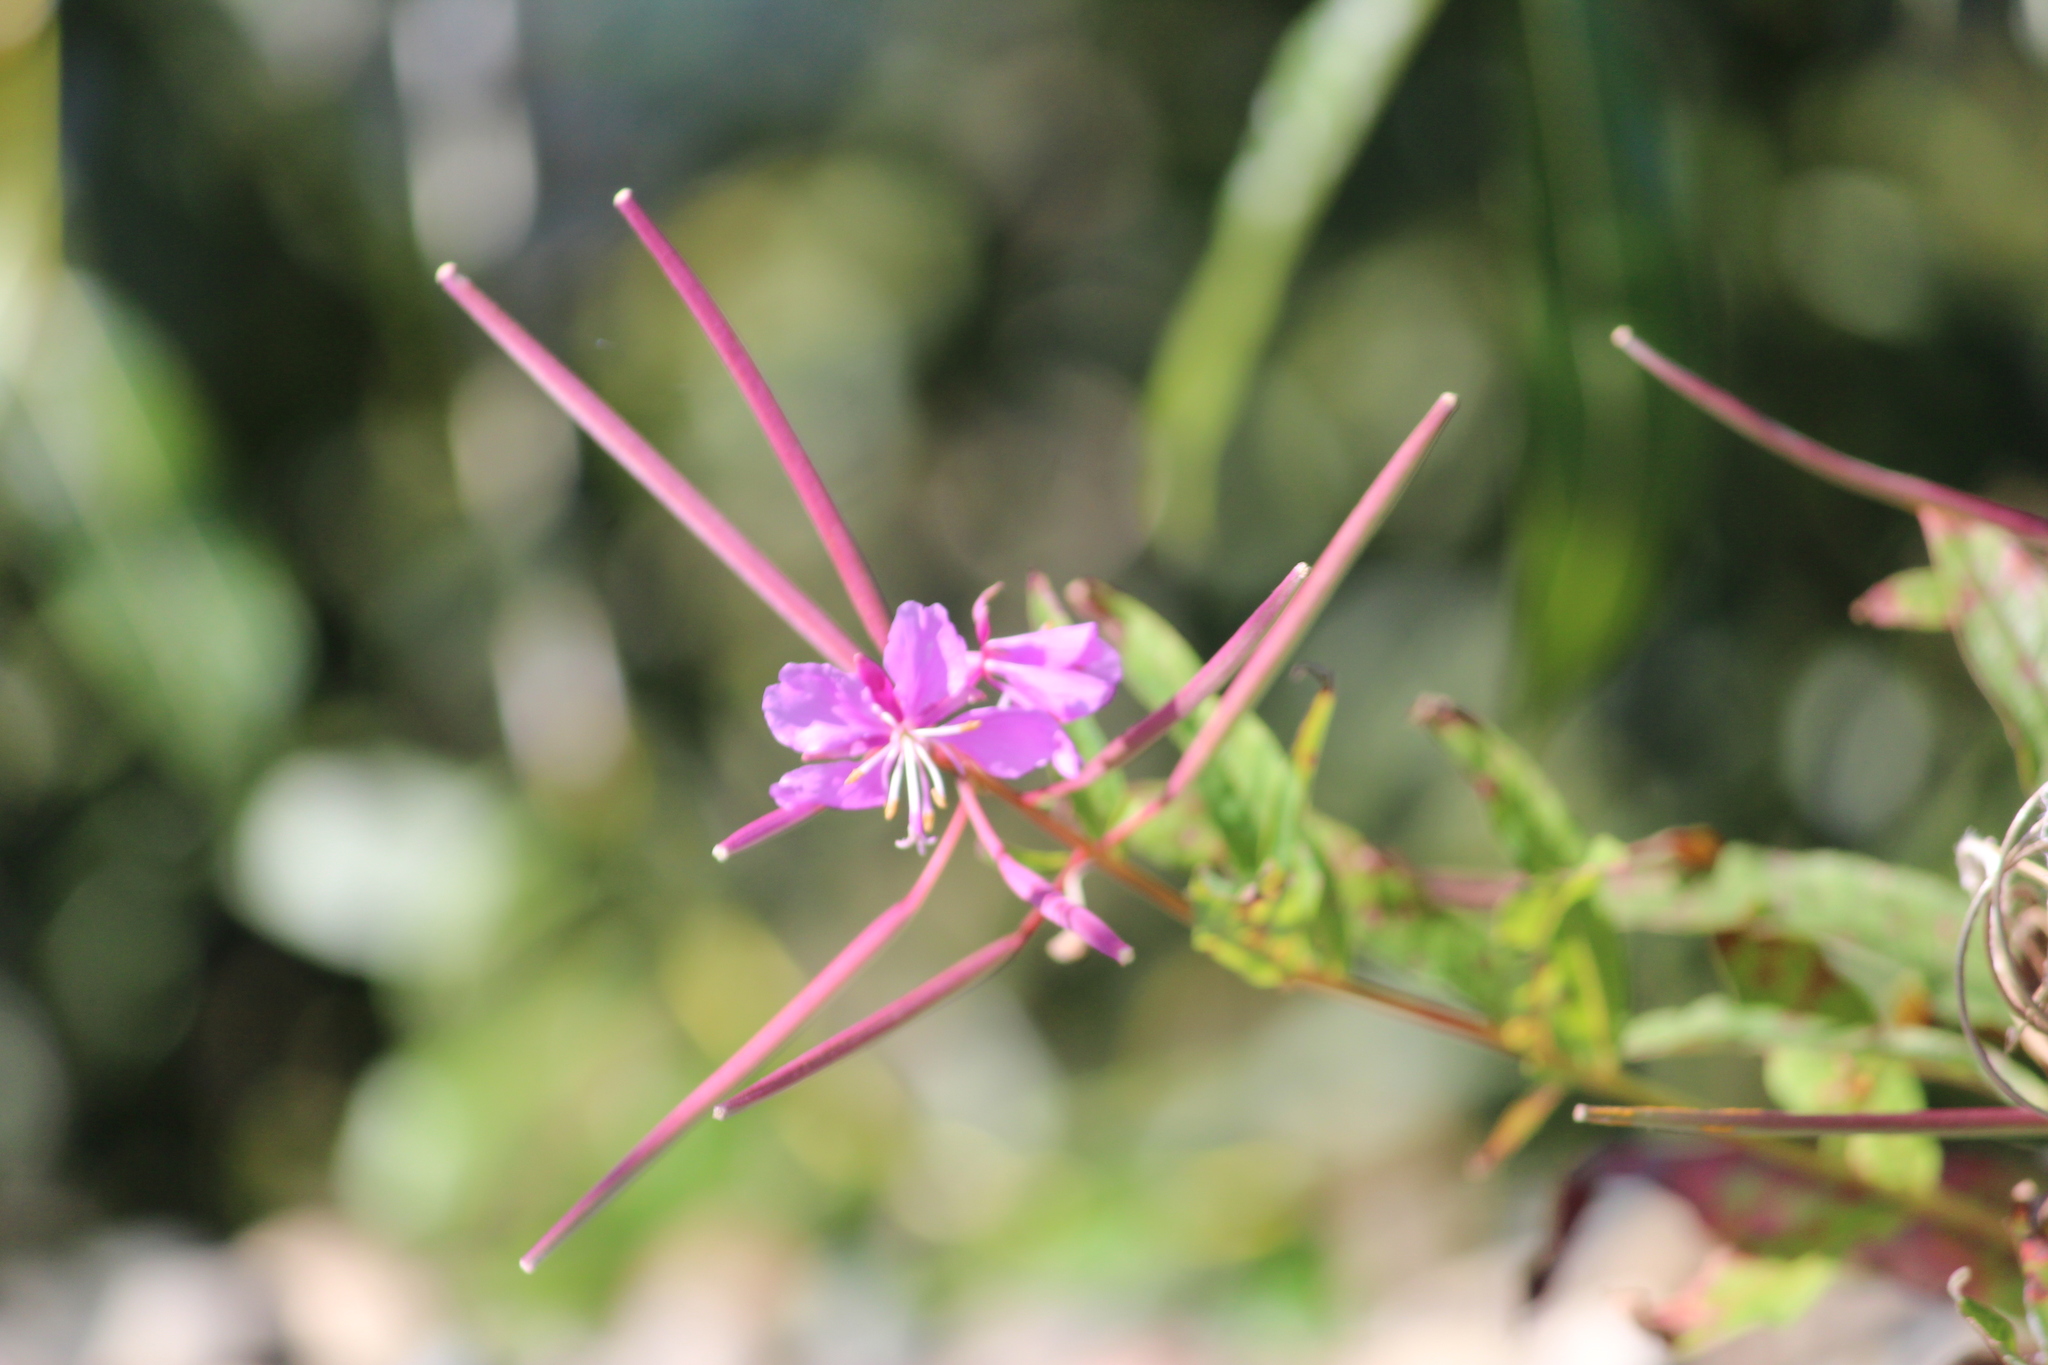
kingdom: Plantae
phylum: Tracheophyta
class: Magnoliopsida
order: Myrtales
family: Onagraceae
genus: Chamaenerion
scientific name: Chamaenerion angustifolium
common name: Fireweed
